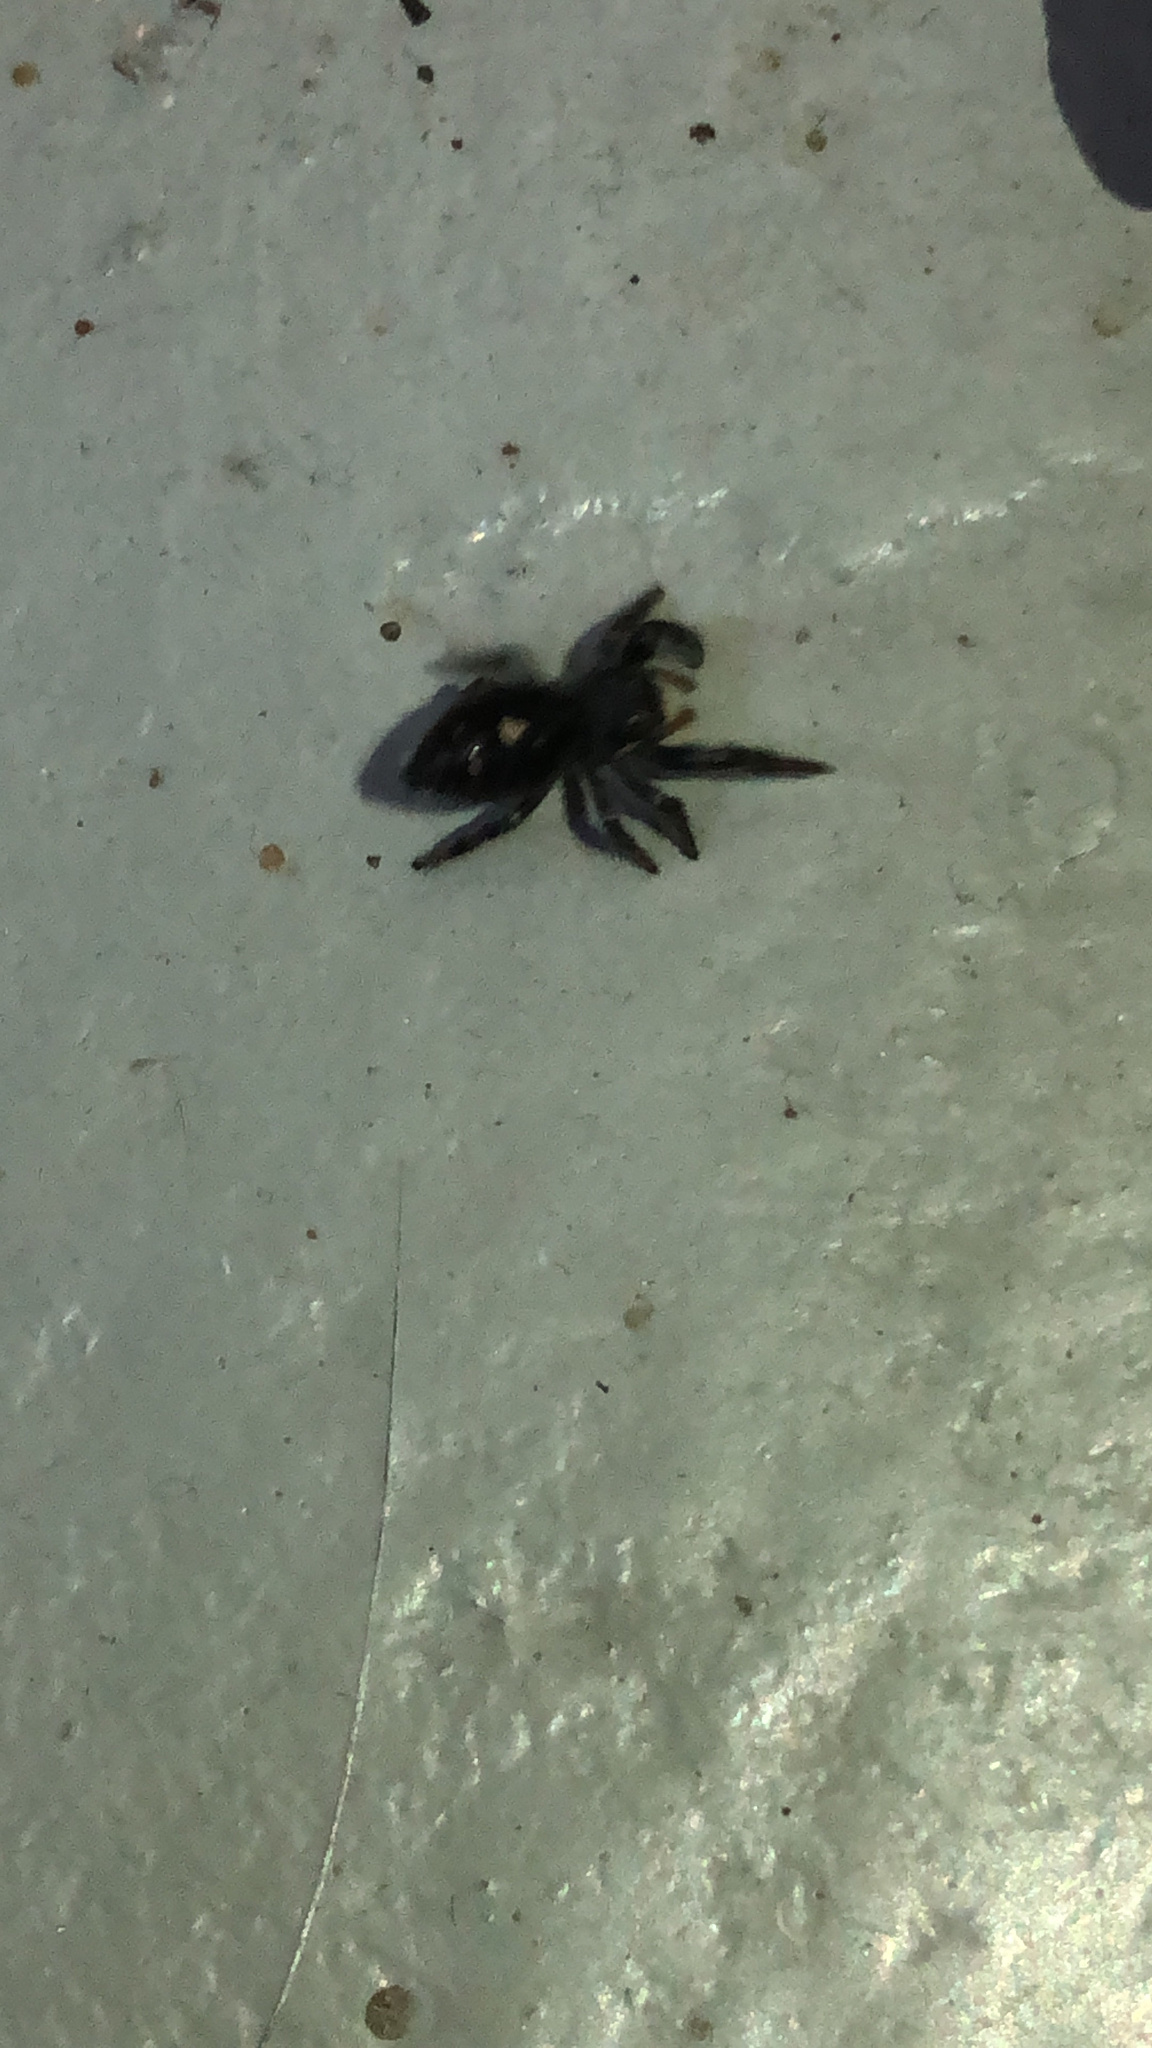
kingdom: Animalia
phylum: Arthropoda
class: Arachnida
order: Araneae
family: Salticidae
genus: Phidippus
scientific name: Phidippus audax
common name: Bold jumper
